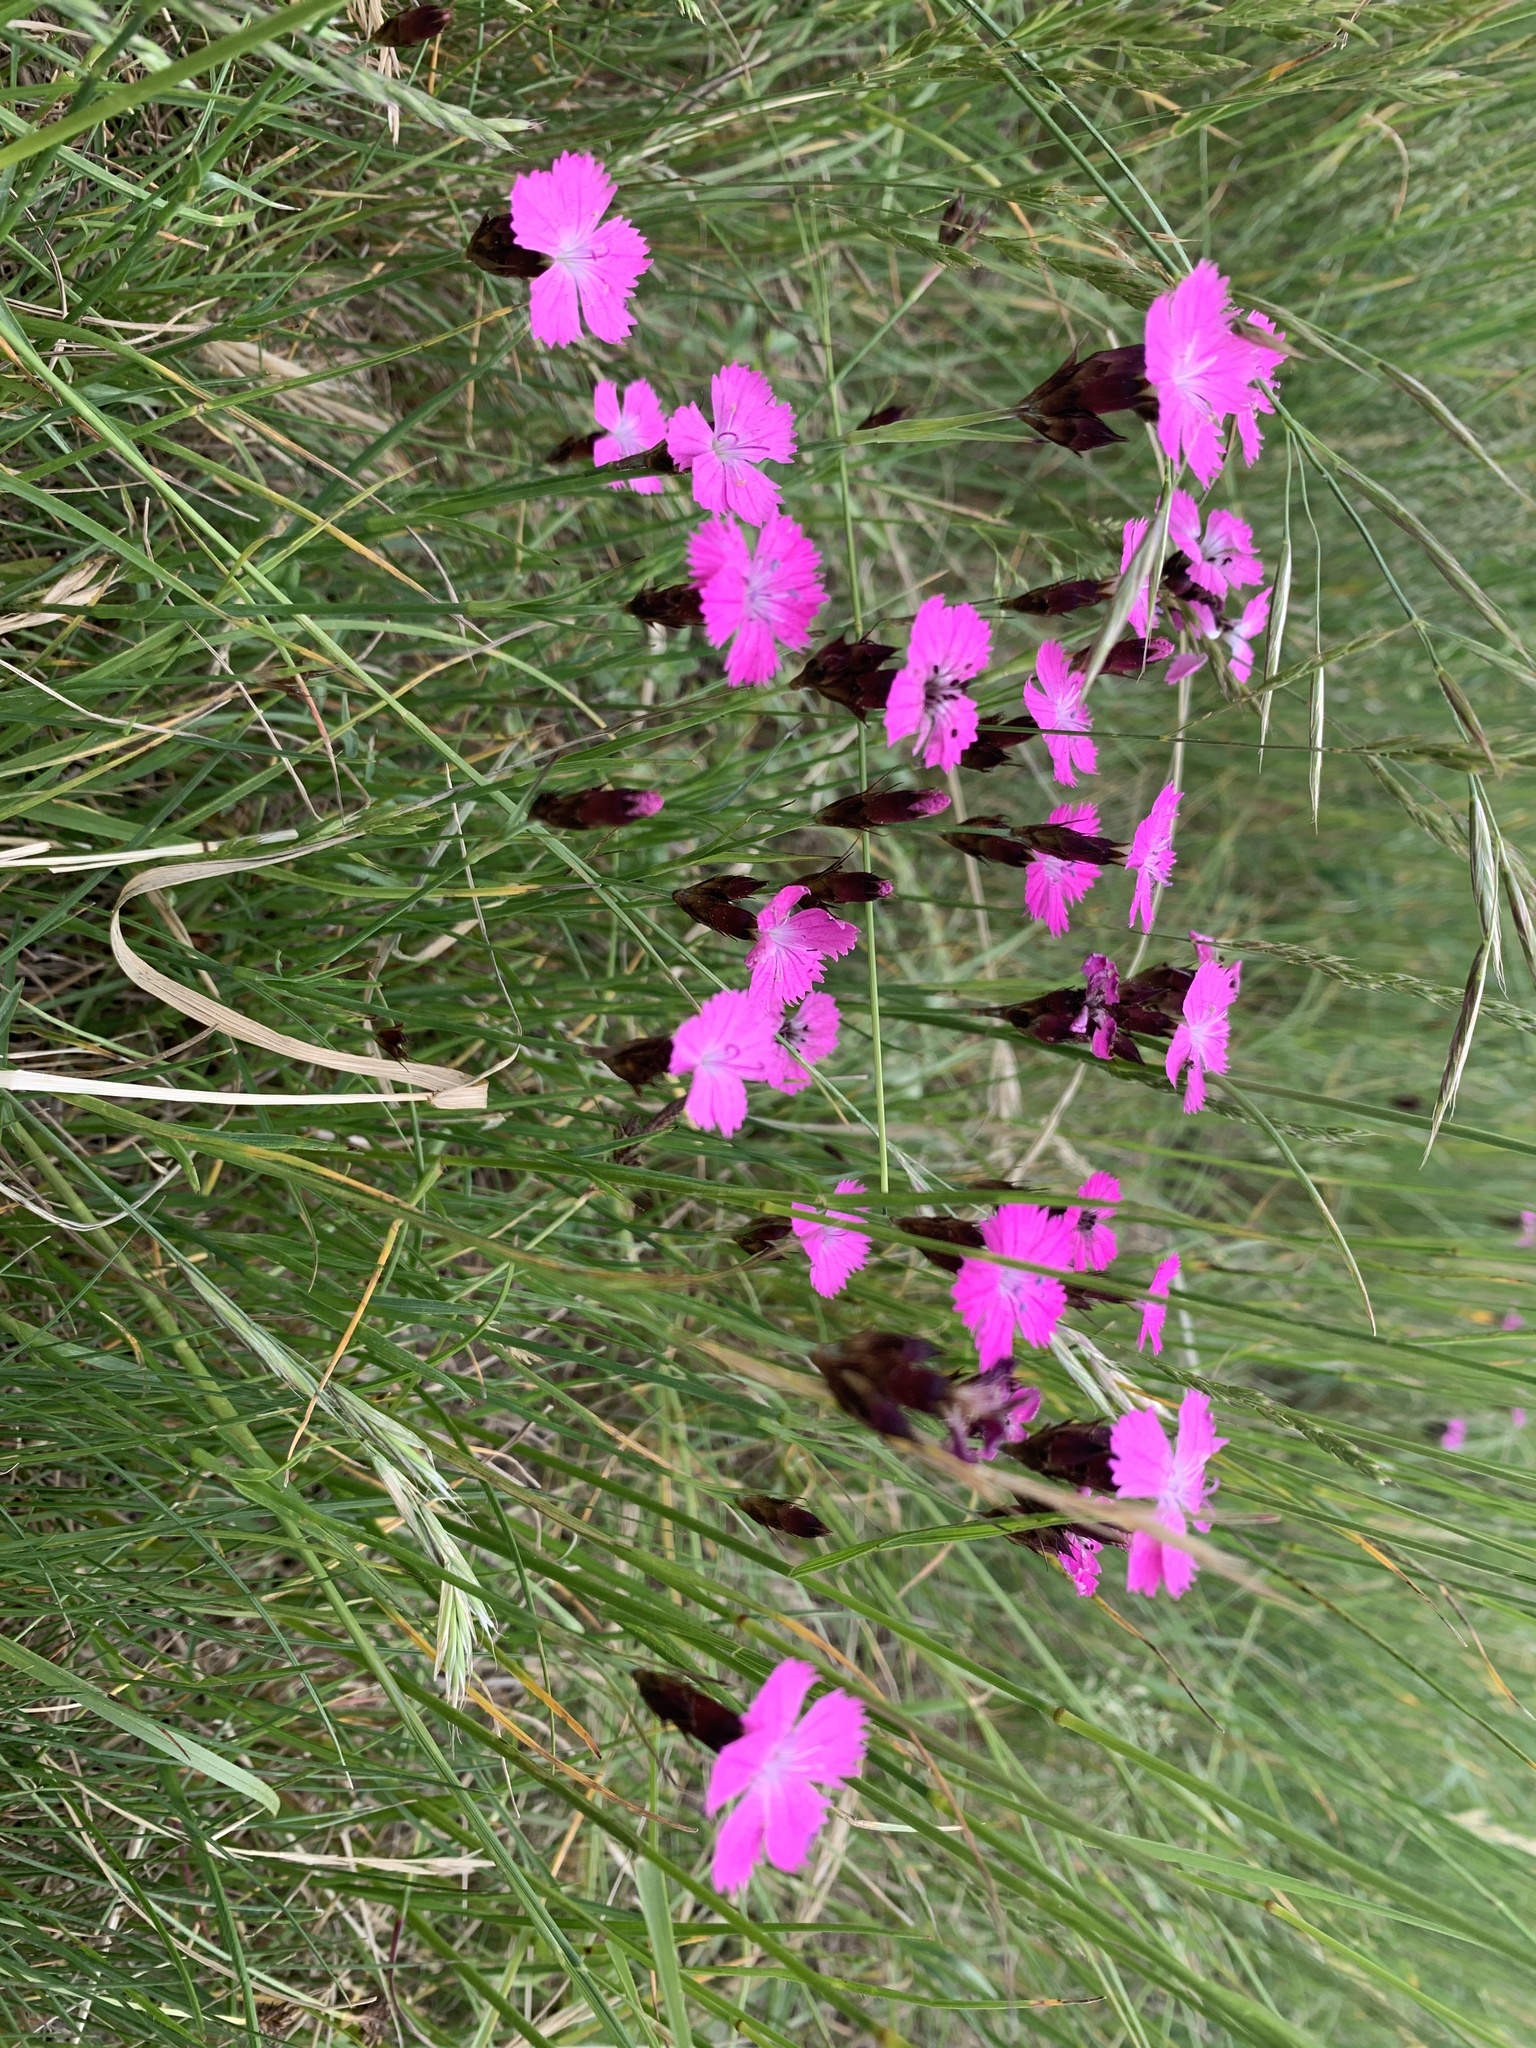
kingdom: Plantae
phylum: Tracheophyta
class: Magnoliopsida
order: Caryophyllales
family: Caryophyllaceae
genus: Dianthus
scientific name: Dianthus carthusianorum
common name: Carthusian pink
